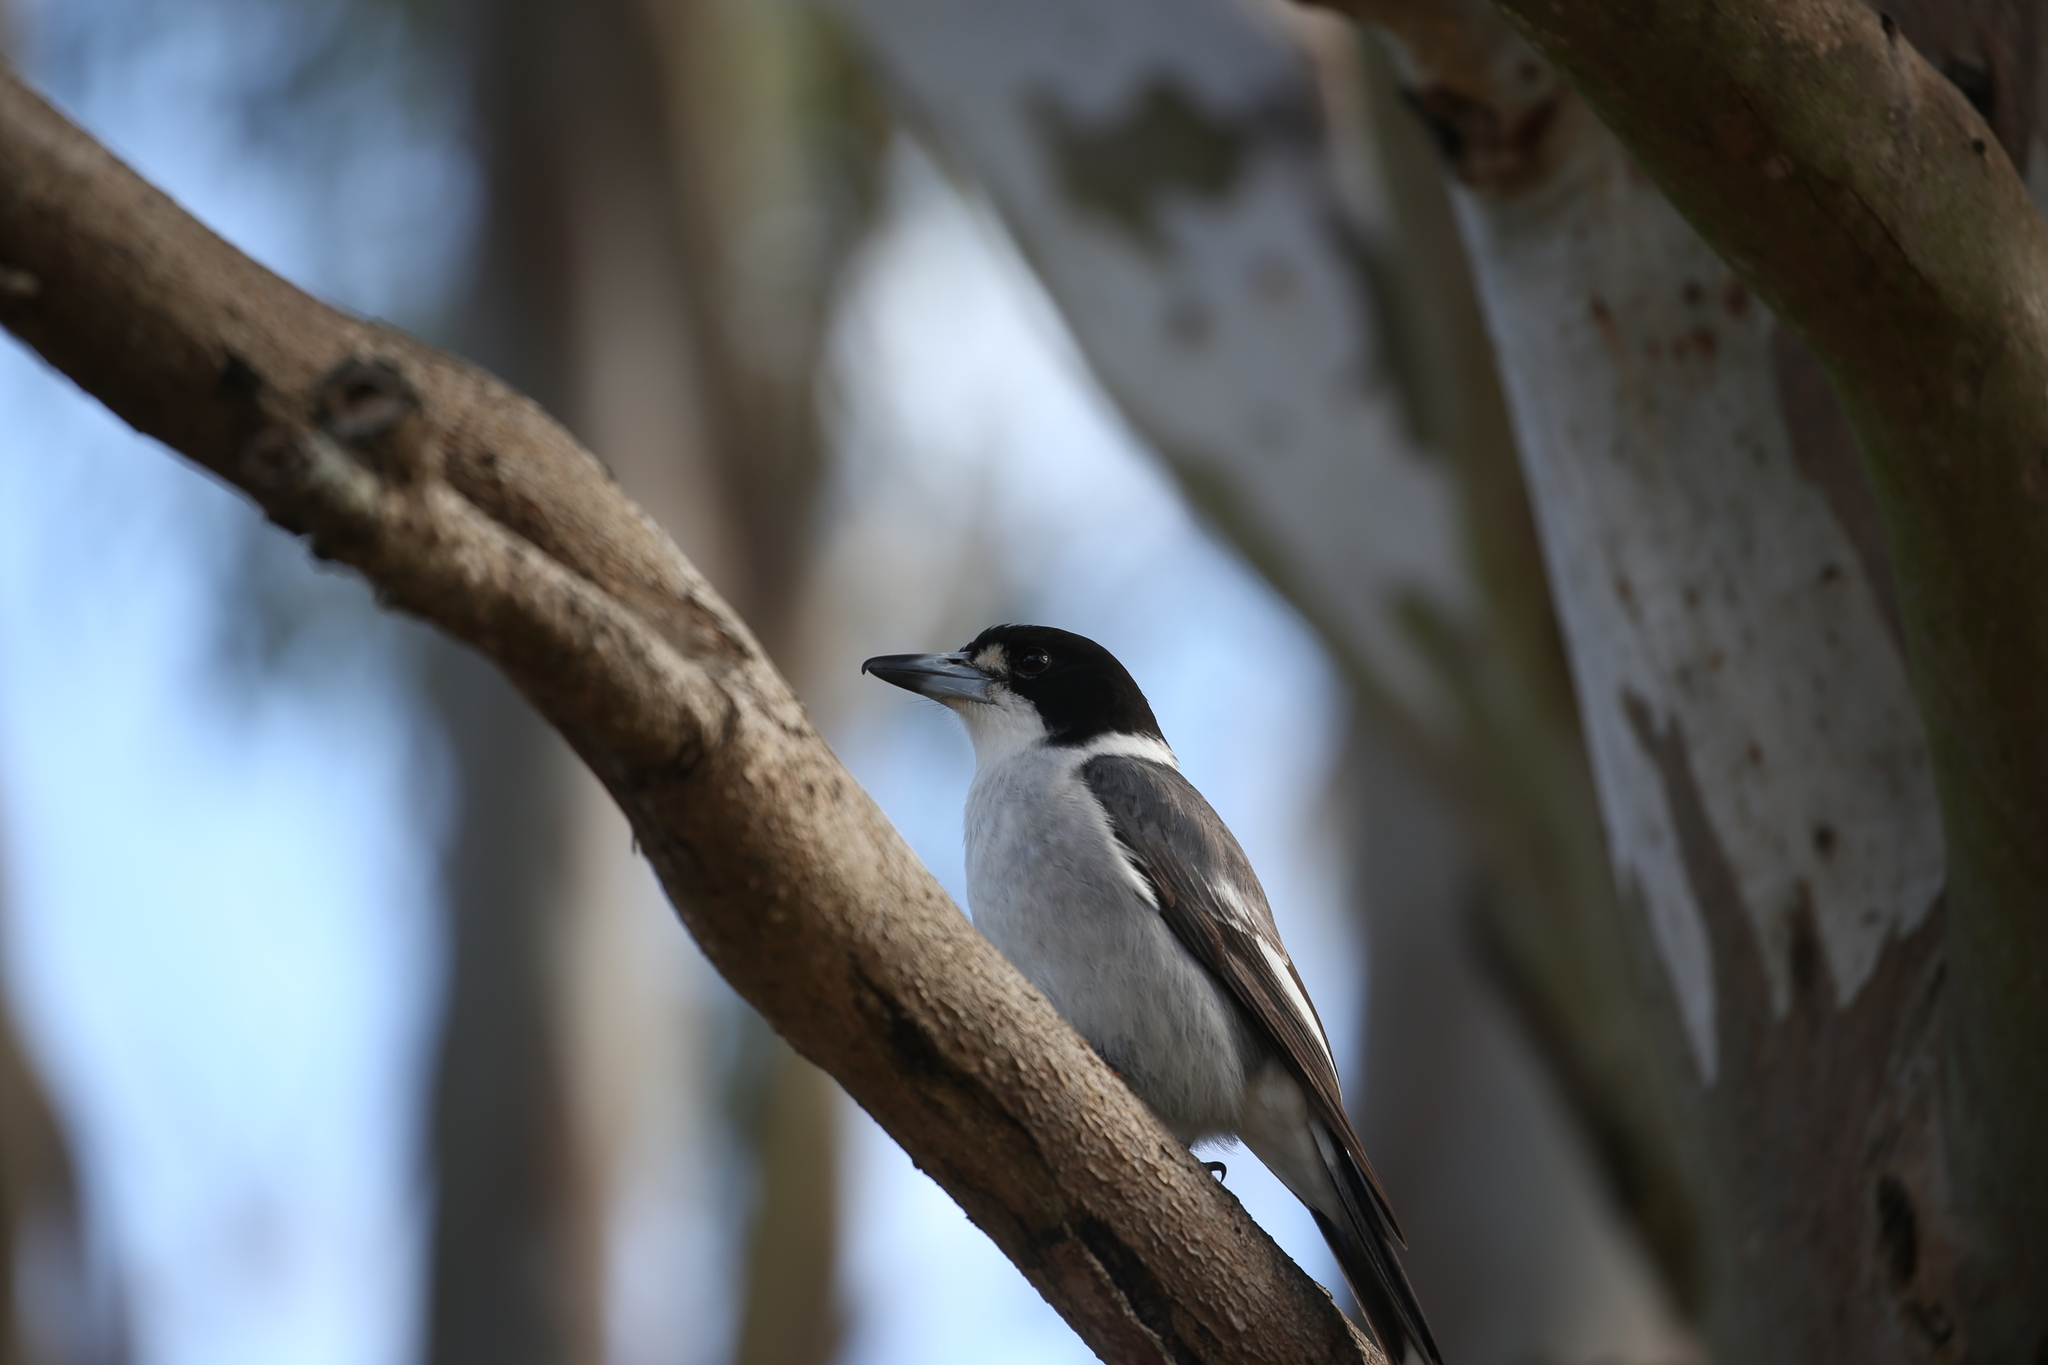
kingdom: Animalia
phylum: Chordata
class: Aves
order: Passeriformes
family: Cracticidae
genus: Cracticus
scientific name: Cracticus torquatus
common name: Grey butcherbird
